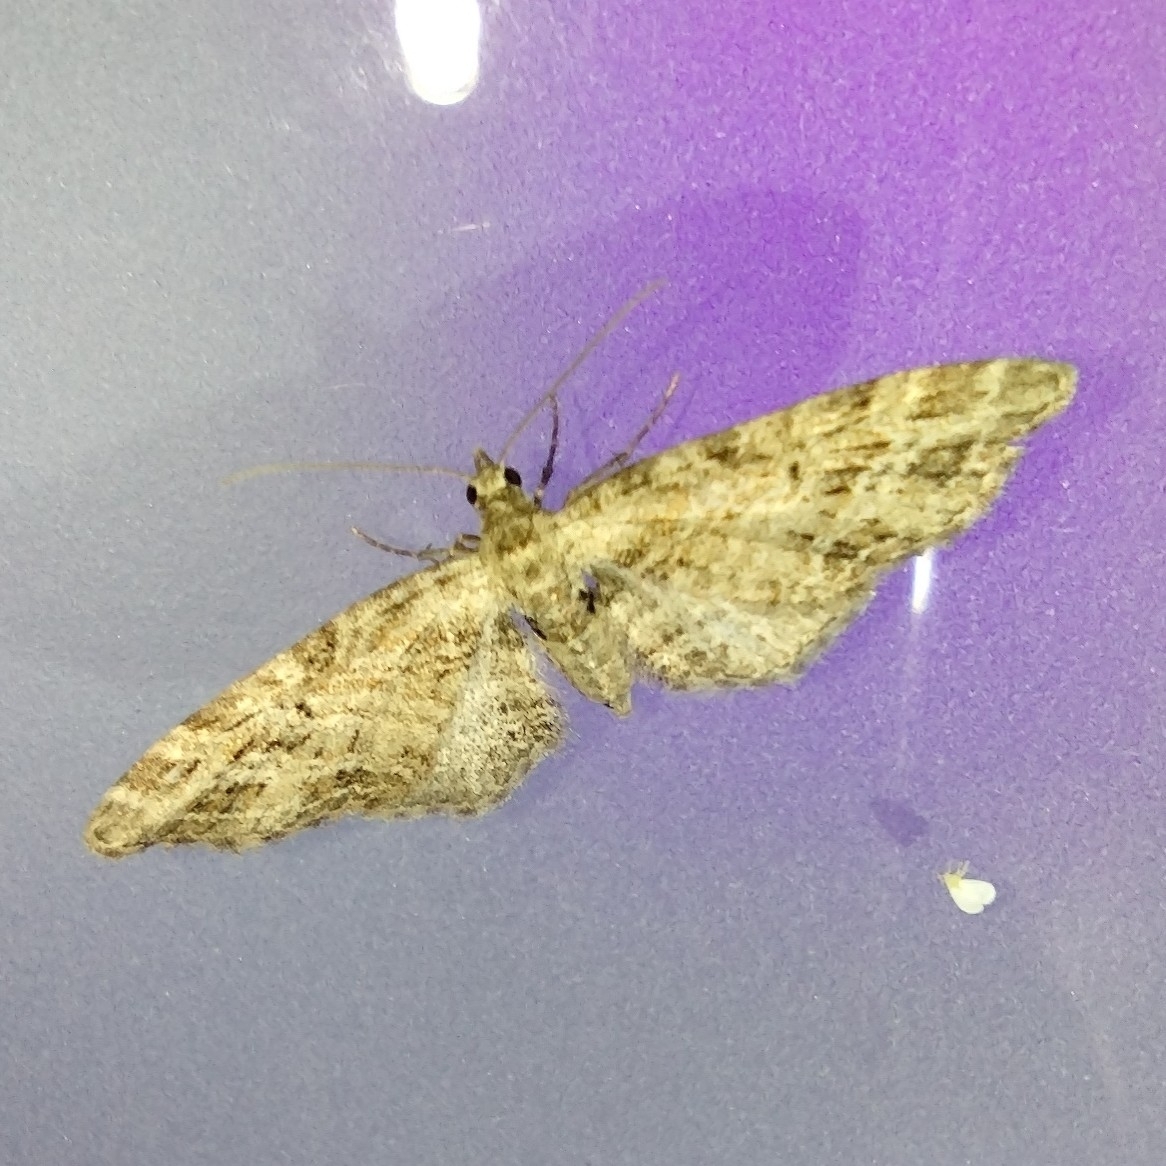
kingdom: Animalia
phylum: Arthropoda
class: Insecta
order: Lepidoptera
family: Geometridae
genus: Eupithecia
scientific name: Eupithecia exiguata
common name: Mottled pug
